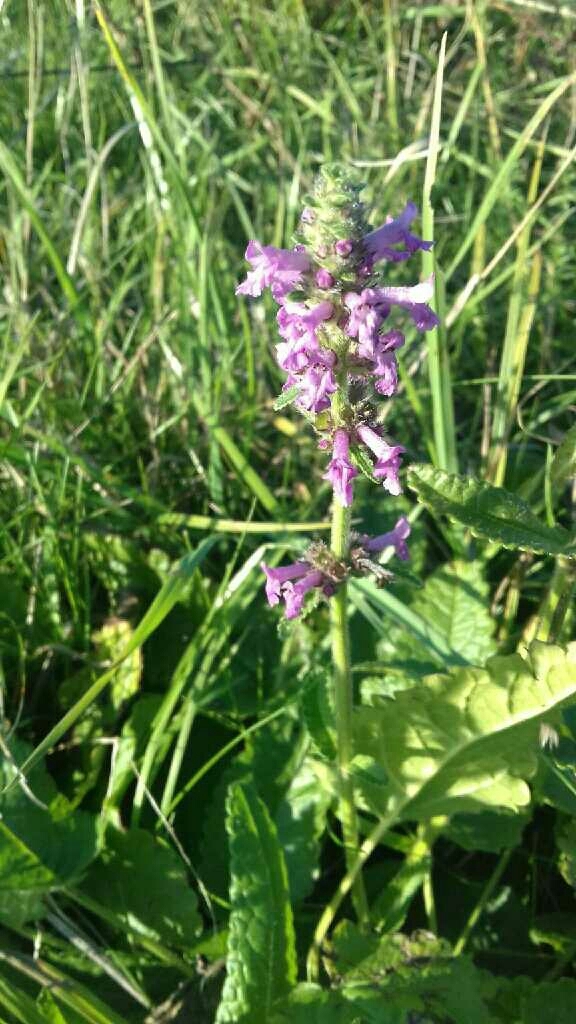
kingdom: Plantae
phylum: Tracheophyta
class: Magnoliopsida
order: Lamiales
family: Lamiaceae
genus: Betonica
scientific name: Betonica officinalis
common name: Bishop's-wort
